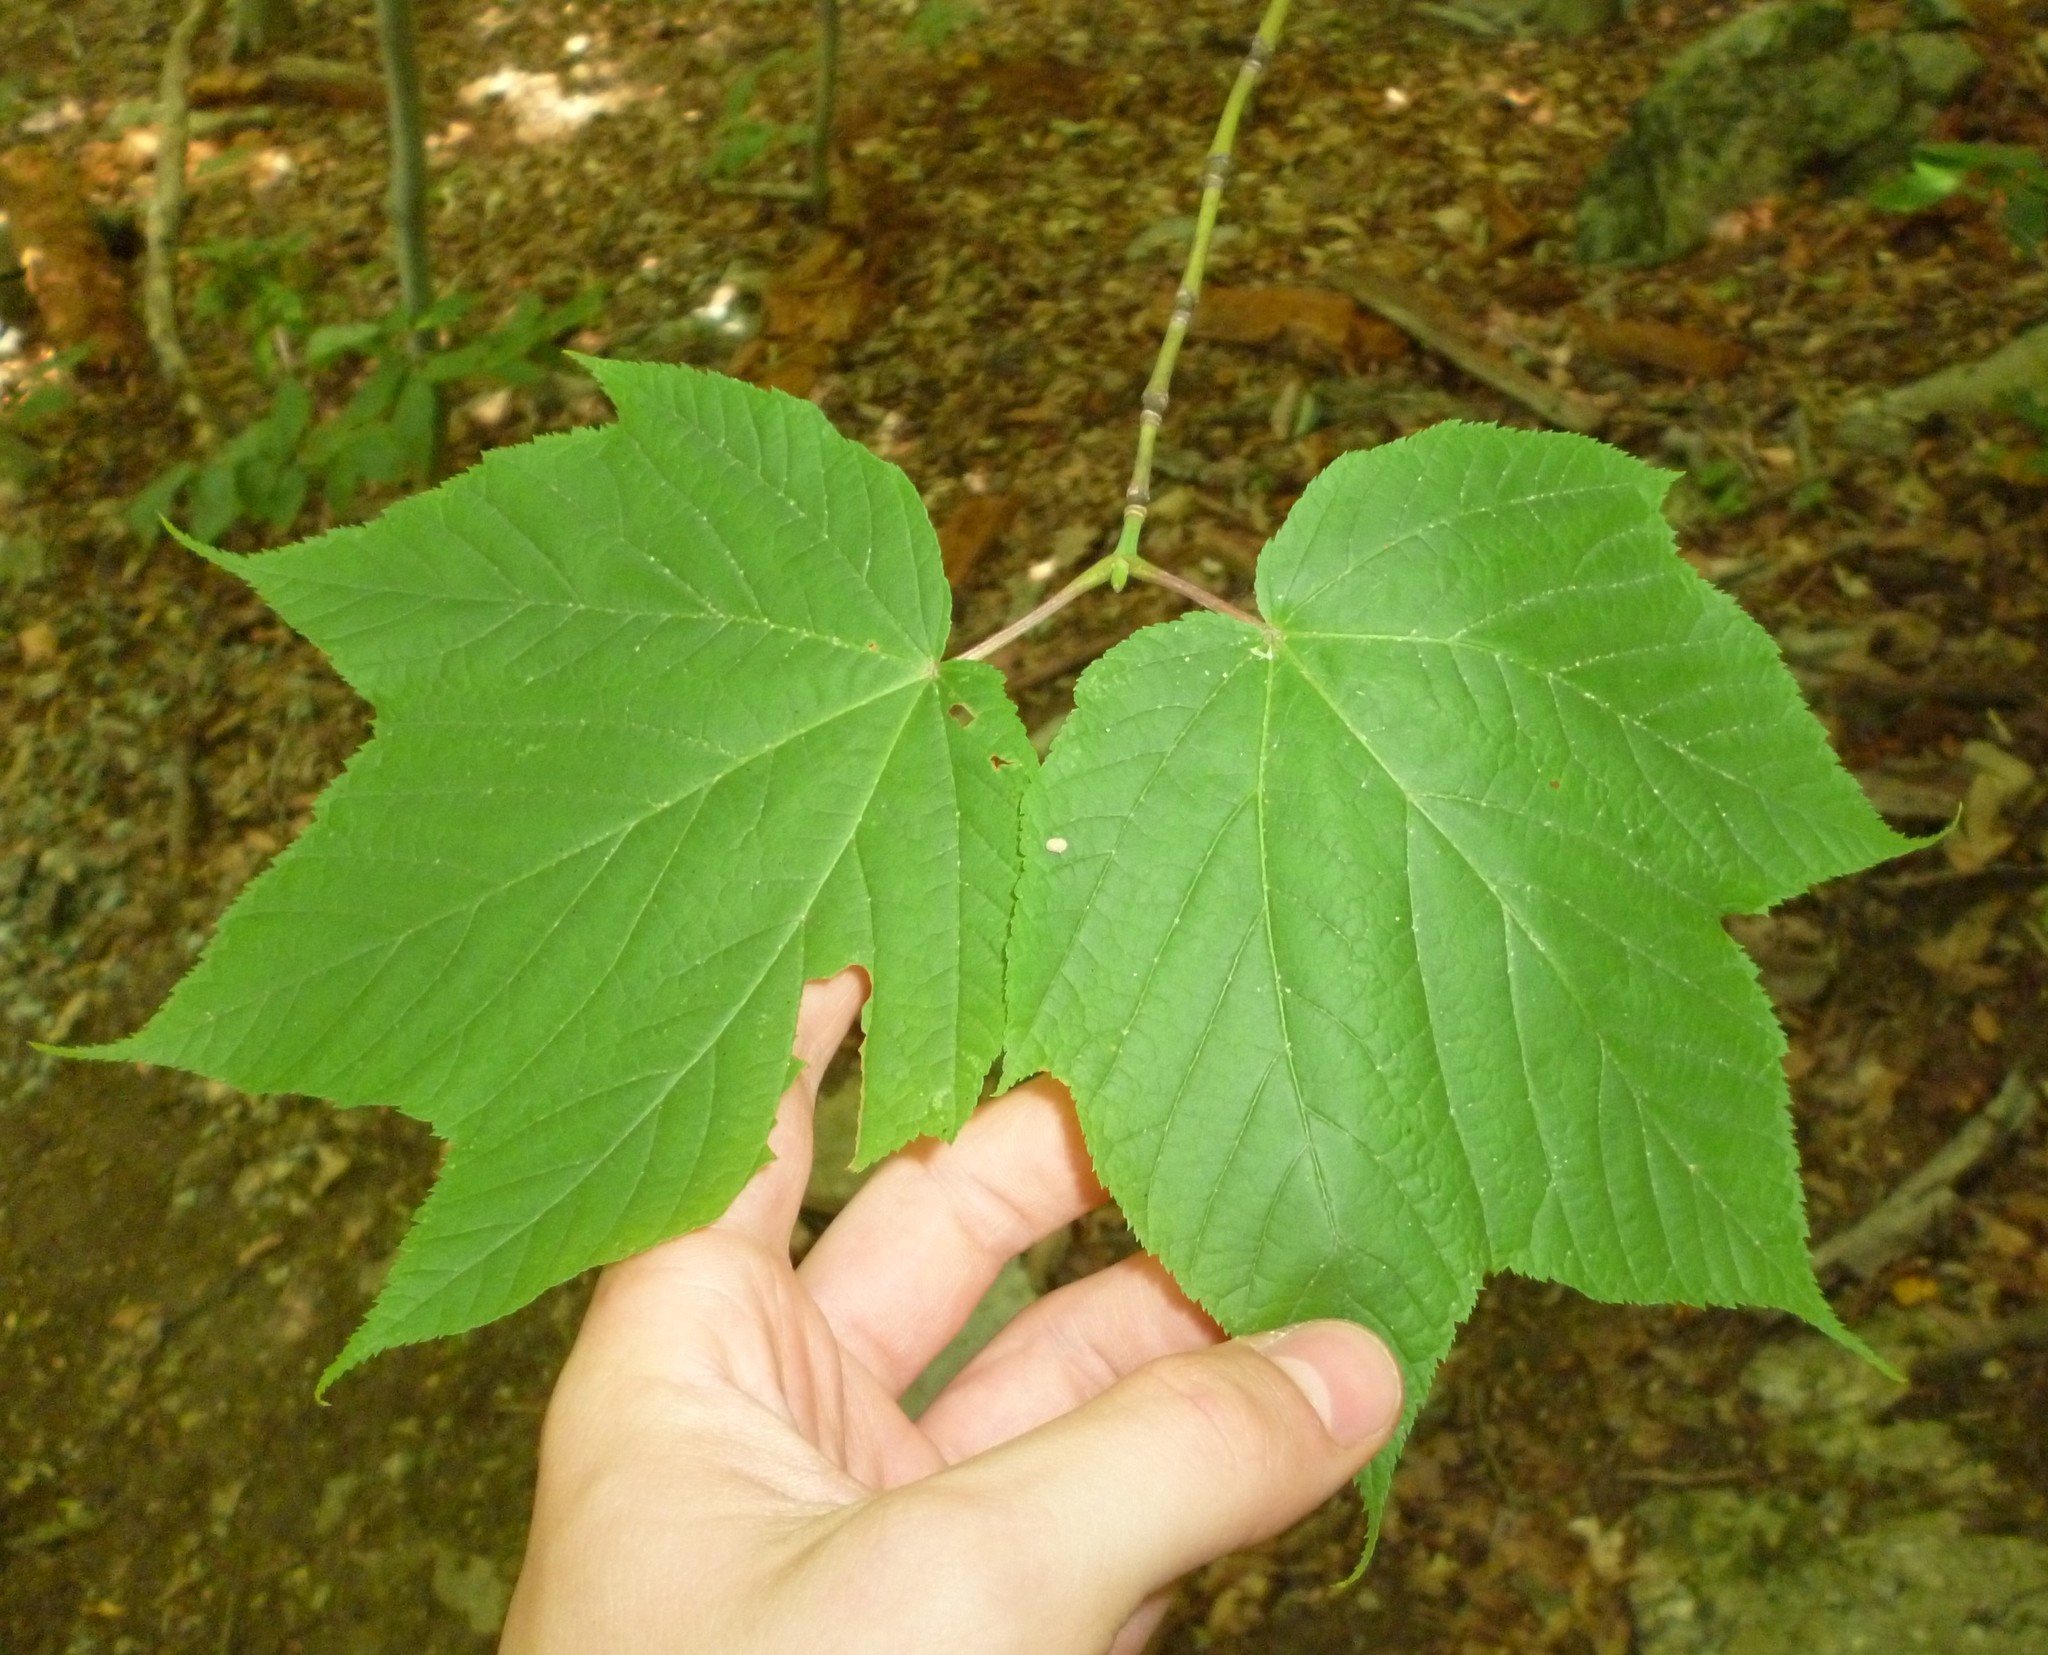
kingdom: Plantae
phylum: Tracheophyta
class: Magnoliopsida
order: Sapindales
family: Sapindaceae
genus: Acer
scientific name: Acer pensylvanicum
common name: Moosewood
